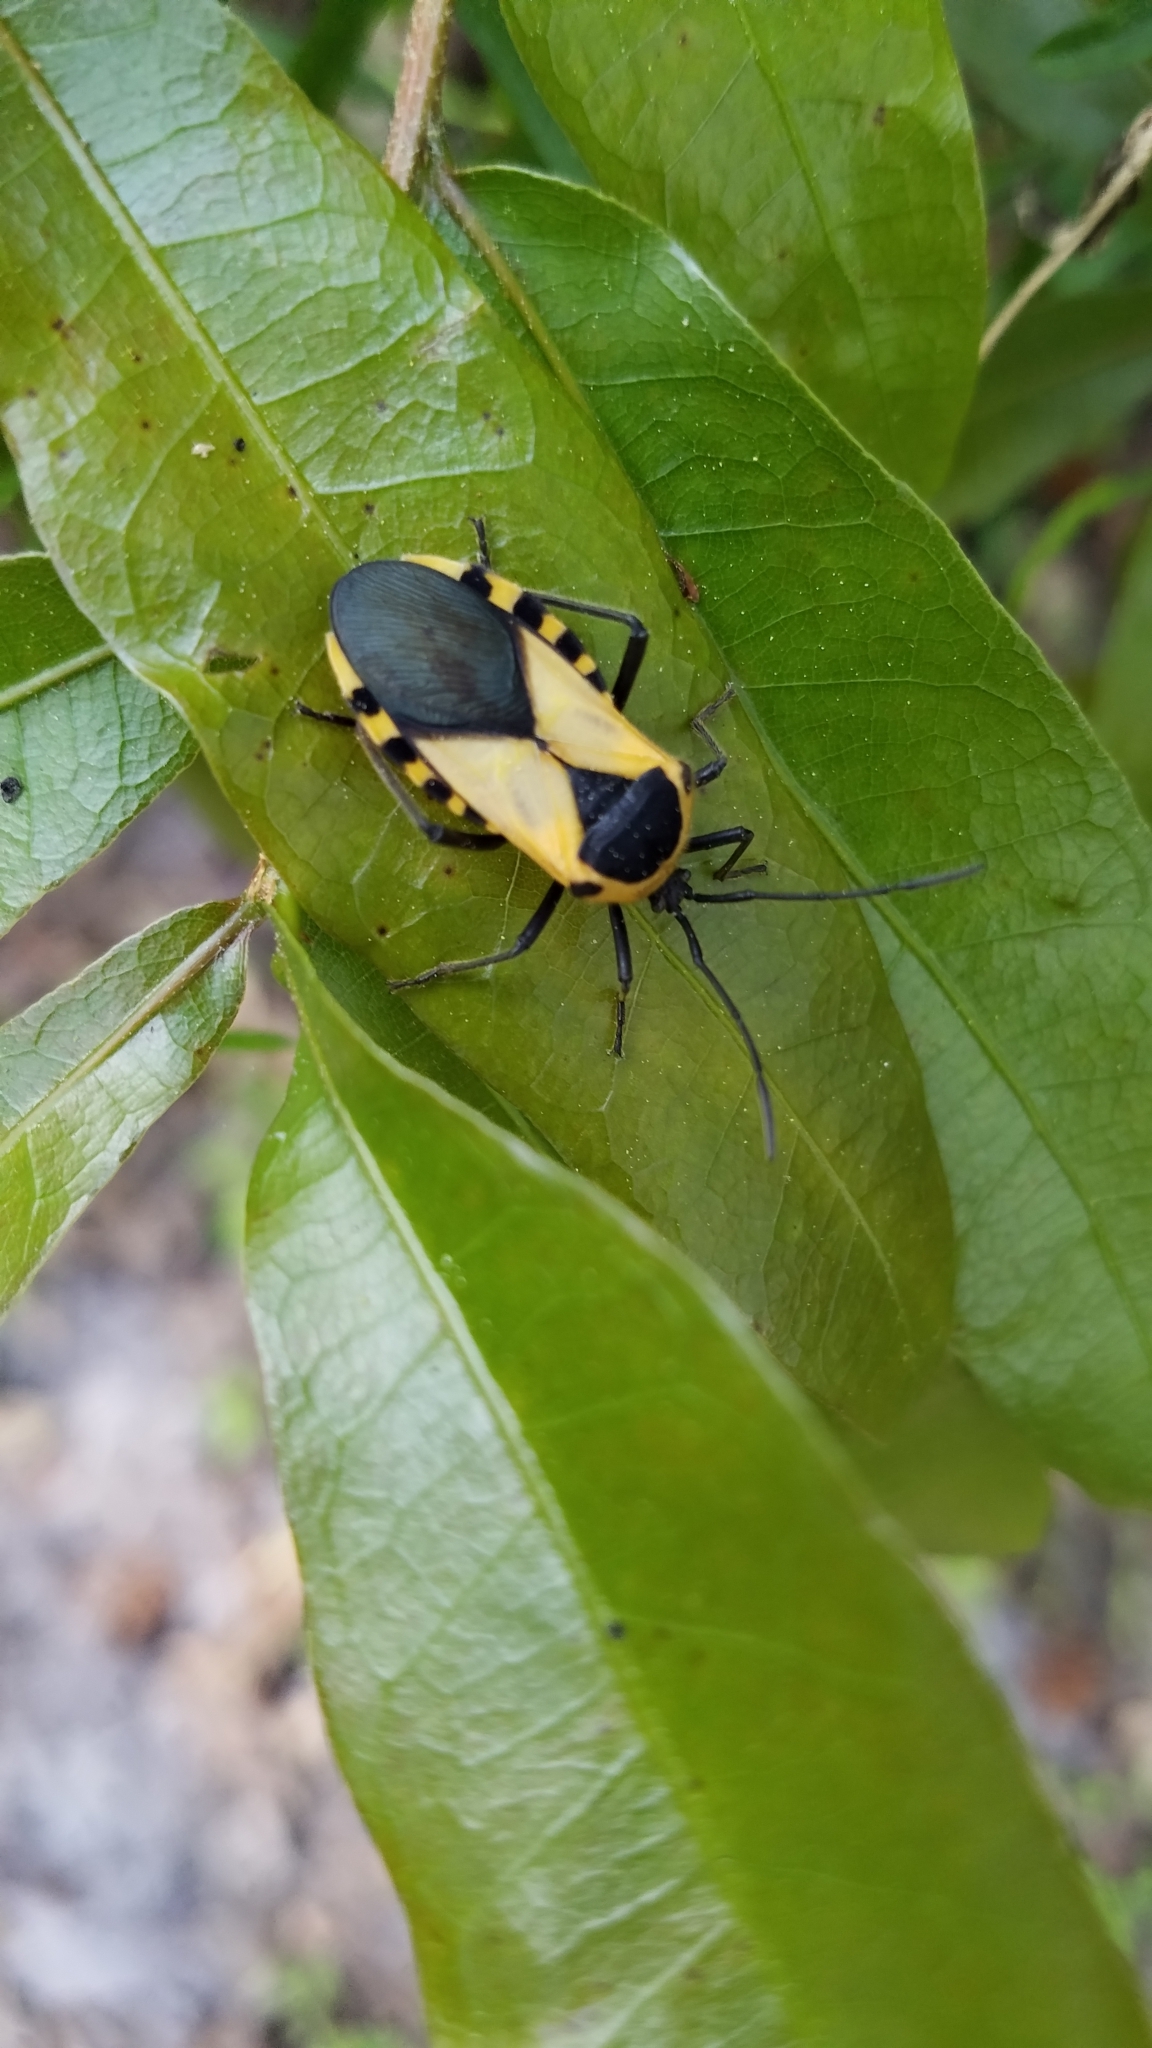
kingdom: Animalia
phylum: Arthropoda
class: Insecta
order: Hemiptera
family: Coreidae
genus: Sephina
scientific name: Sephina gundlachii
